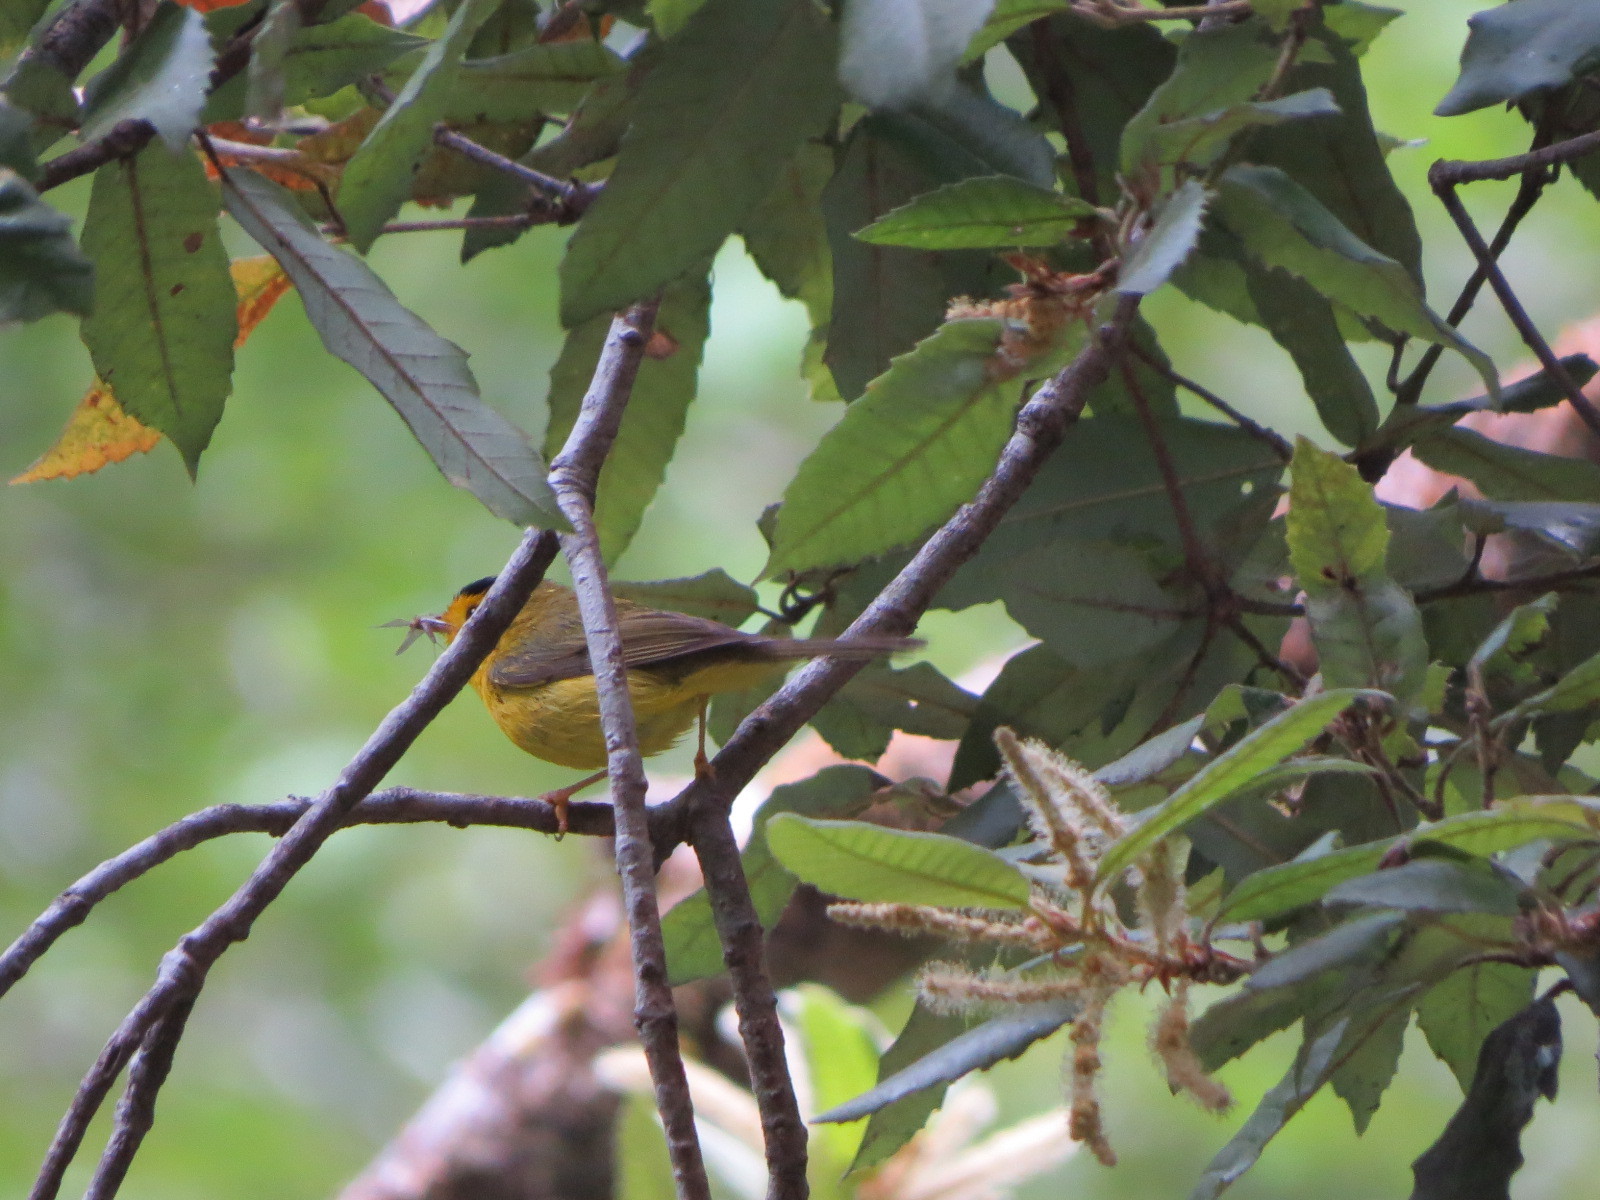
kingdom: Animalia
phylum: Chordata
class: Aves
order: Passeriformes
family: Parulidae
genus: Cardellina
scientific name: Cardellina pusilla
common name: Wilson's warbler
